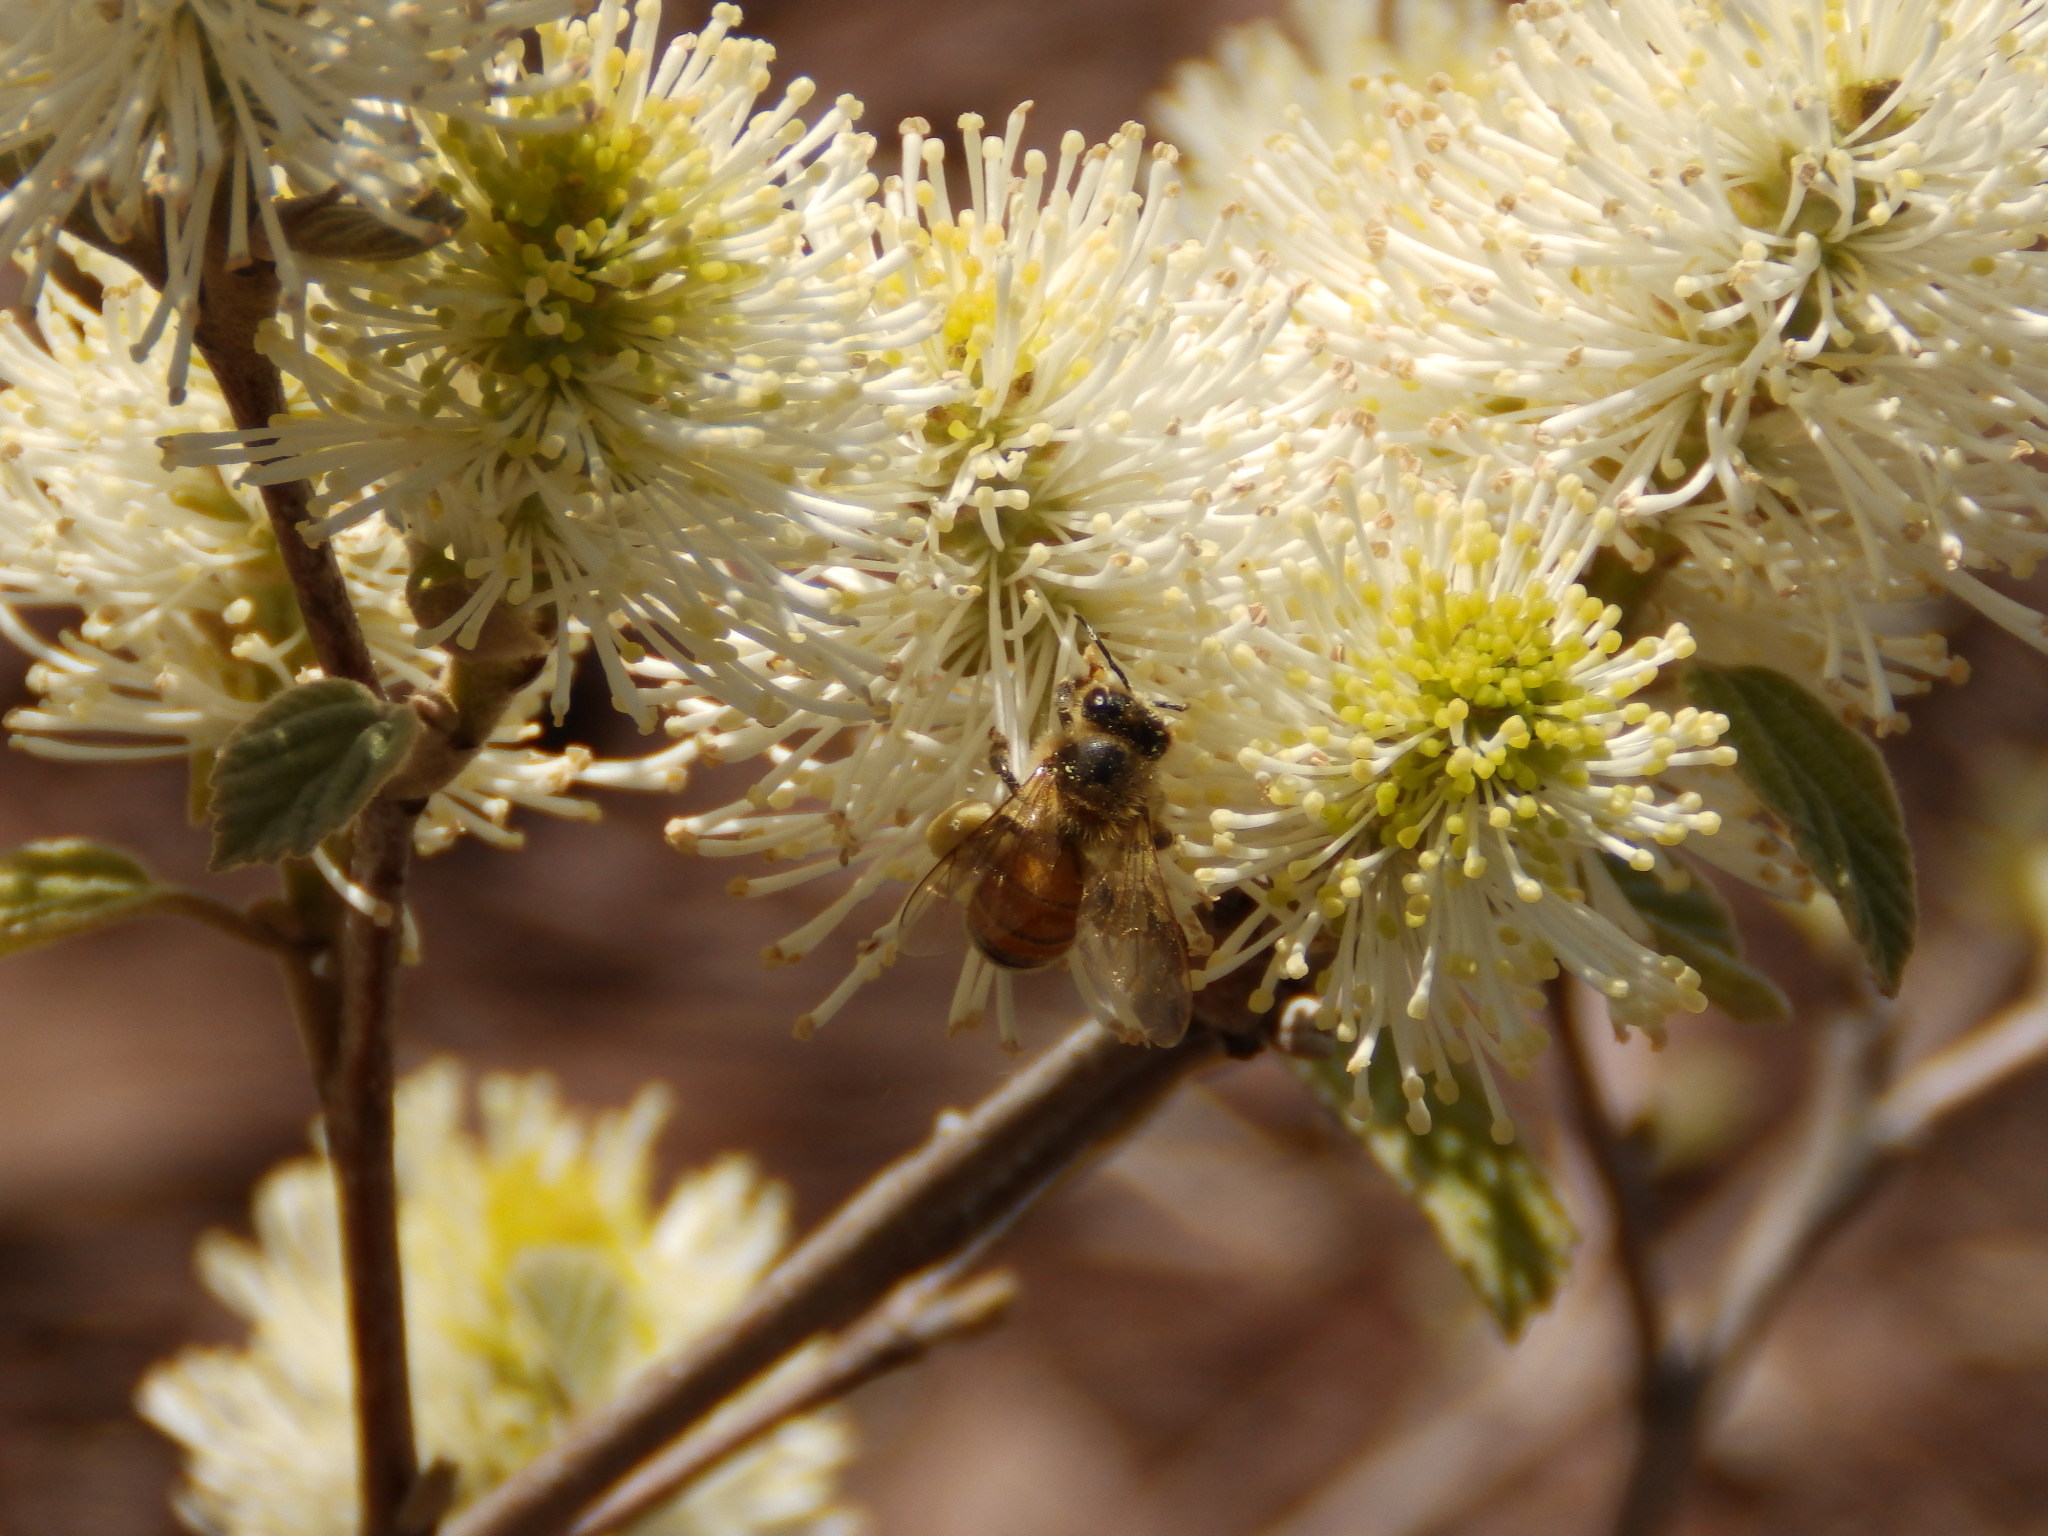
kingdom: Animalia
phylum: Arthropoda
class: Insecta
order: Hymenoptera
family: Apidae
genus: Apis
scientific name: Apis mellifera
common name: Honey bee
